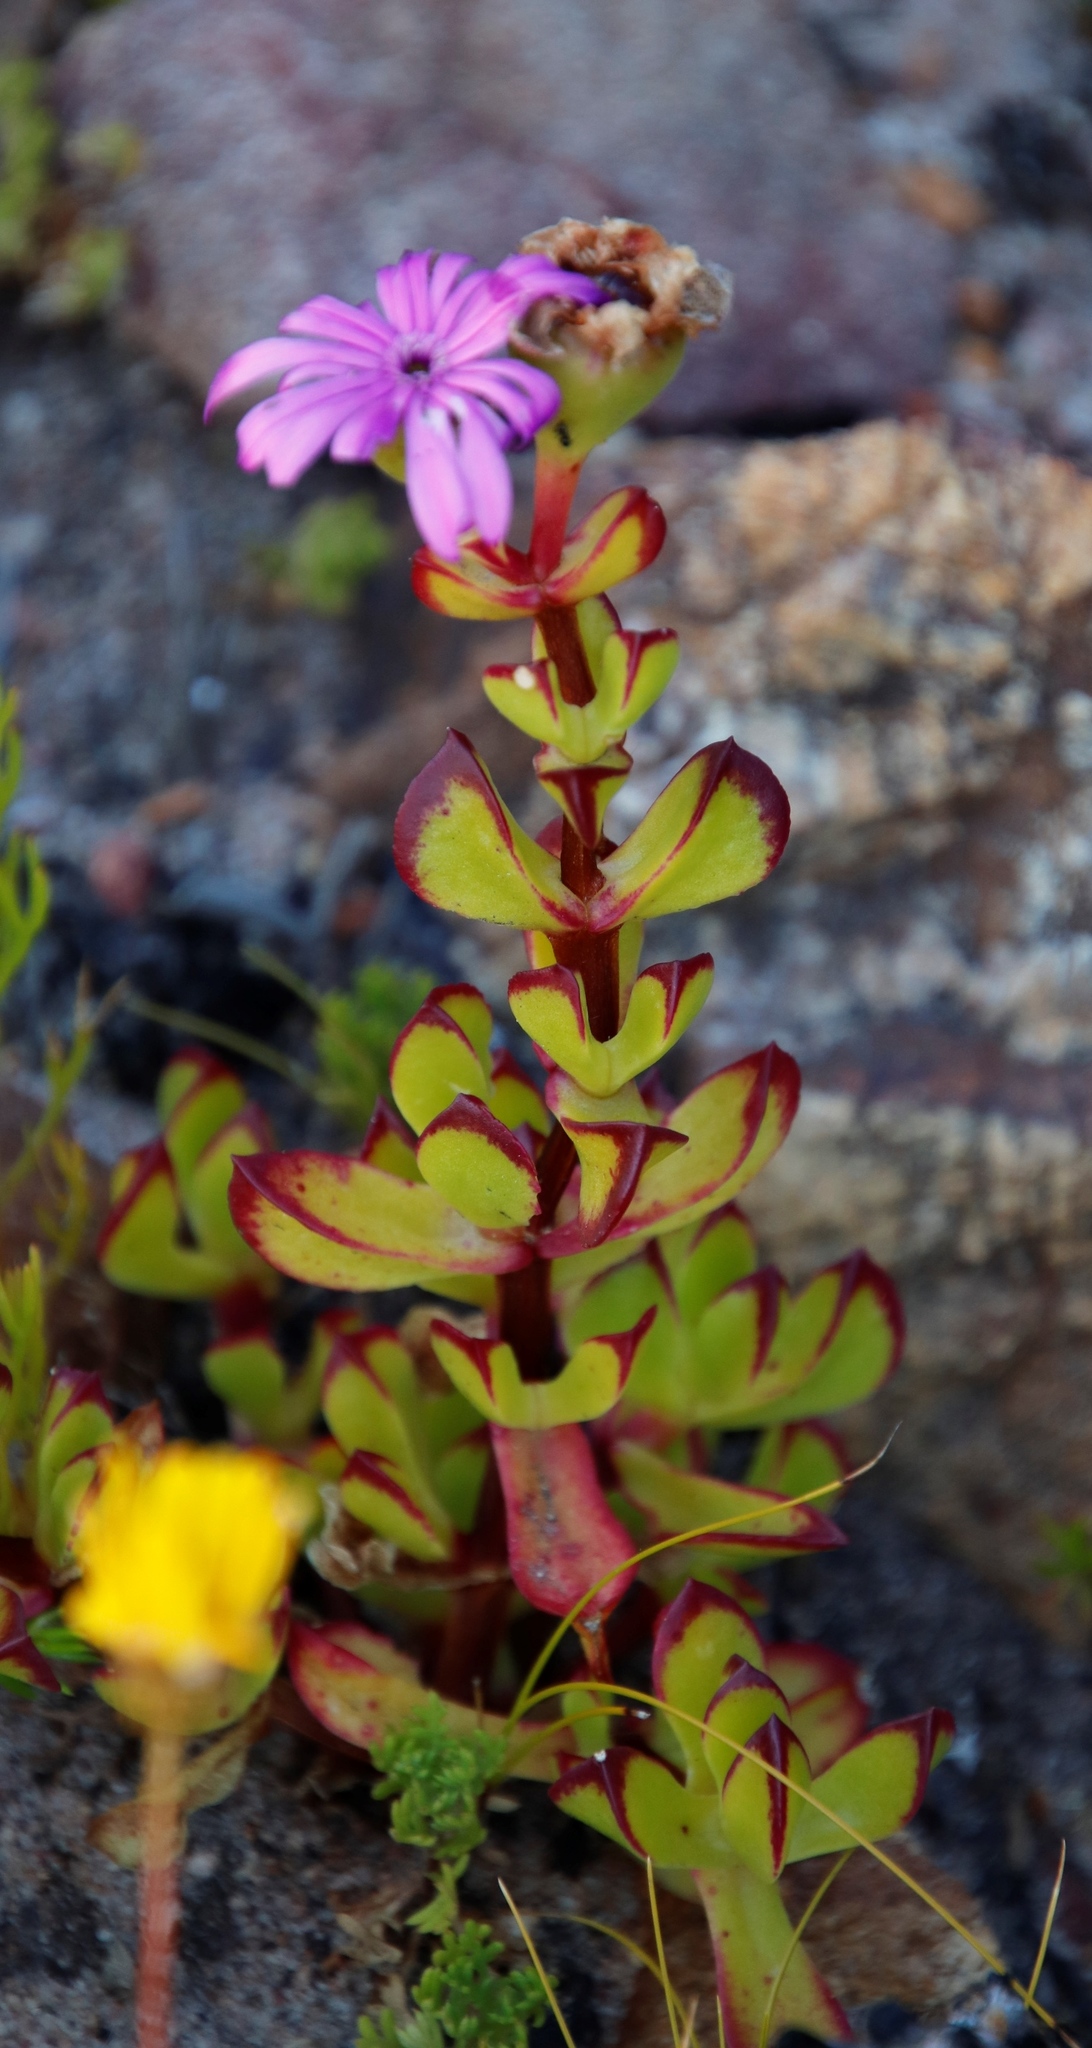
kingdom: Plantae
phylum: Tracheophyta
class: Magnoliopsida
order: Caryophyllales
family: Aizoaceae
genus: Erepsia
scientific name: Erepsia inclaudens
